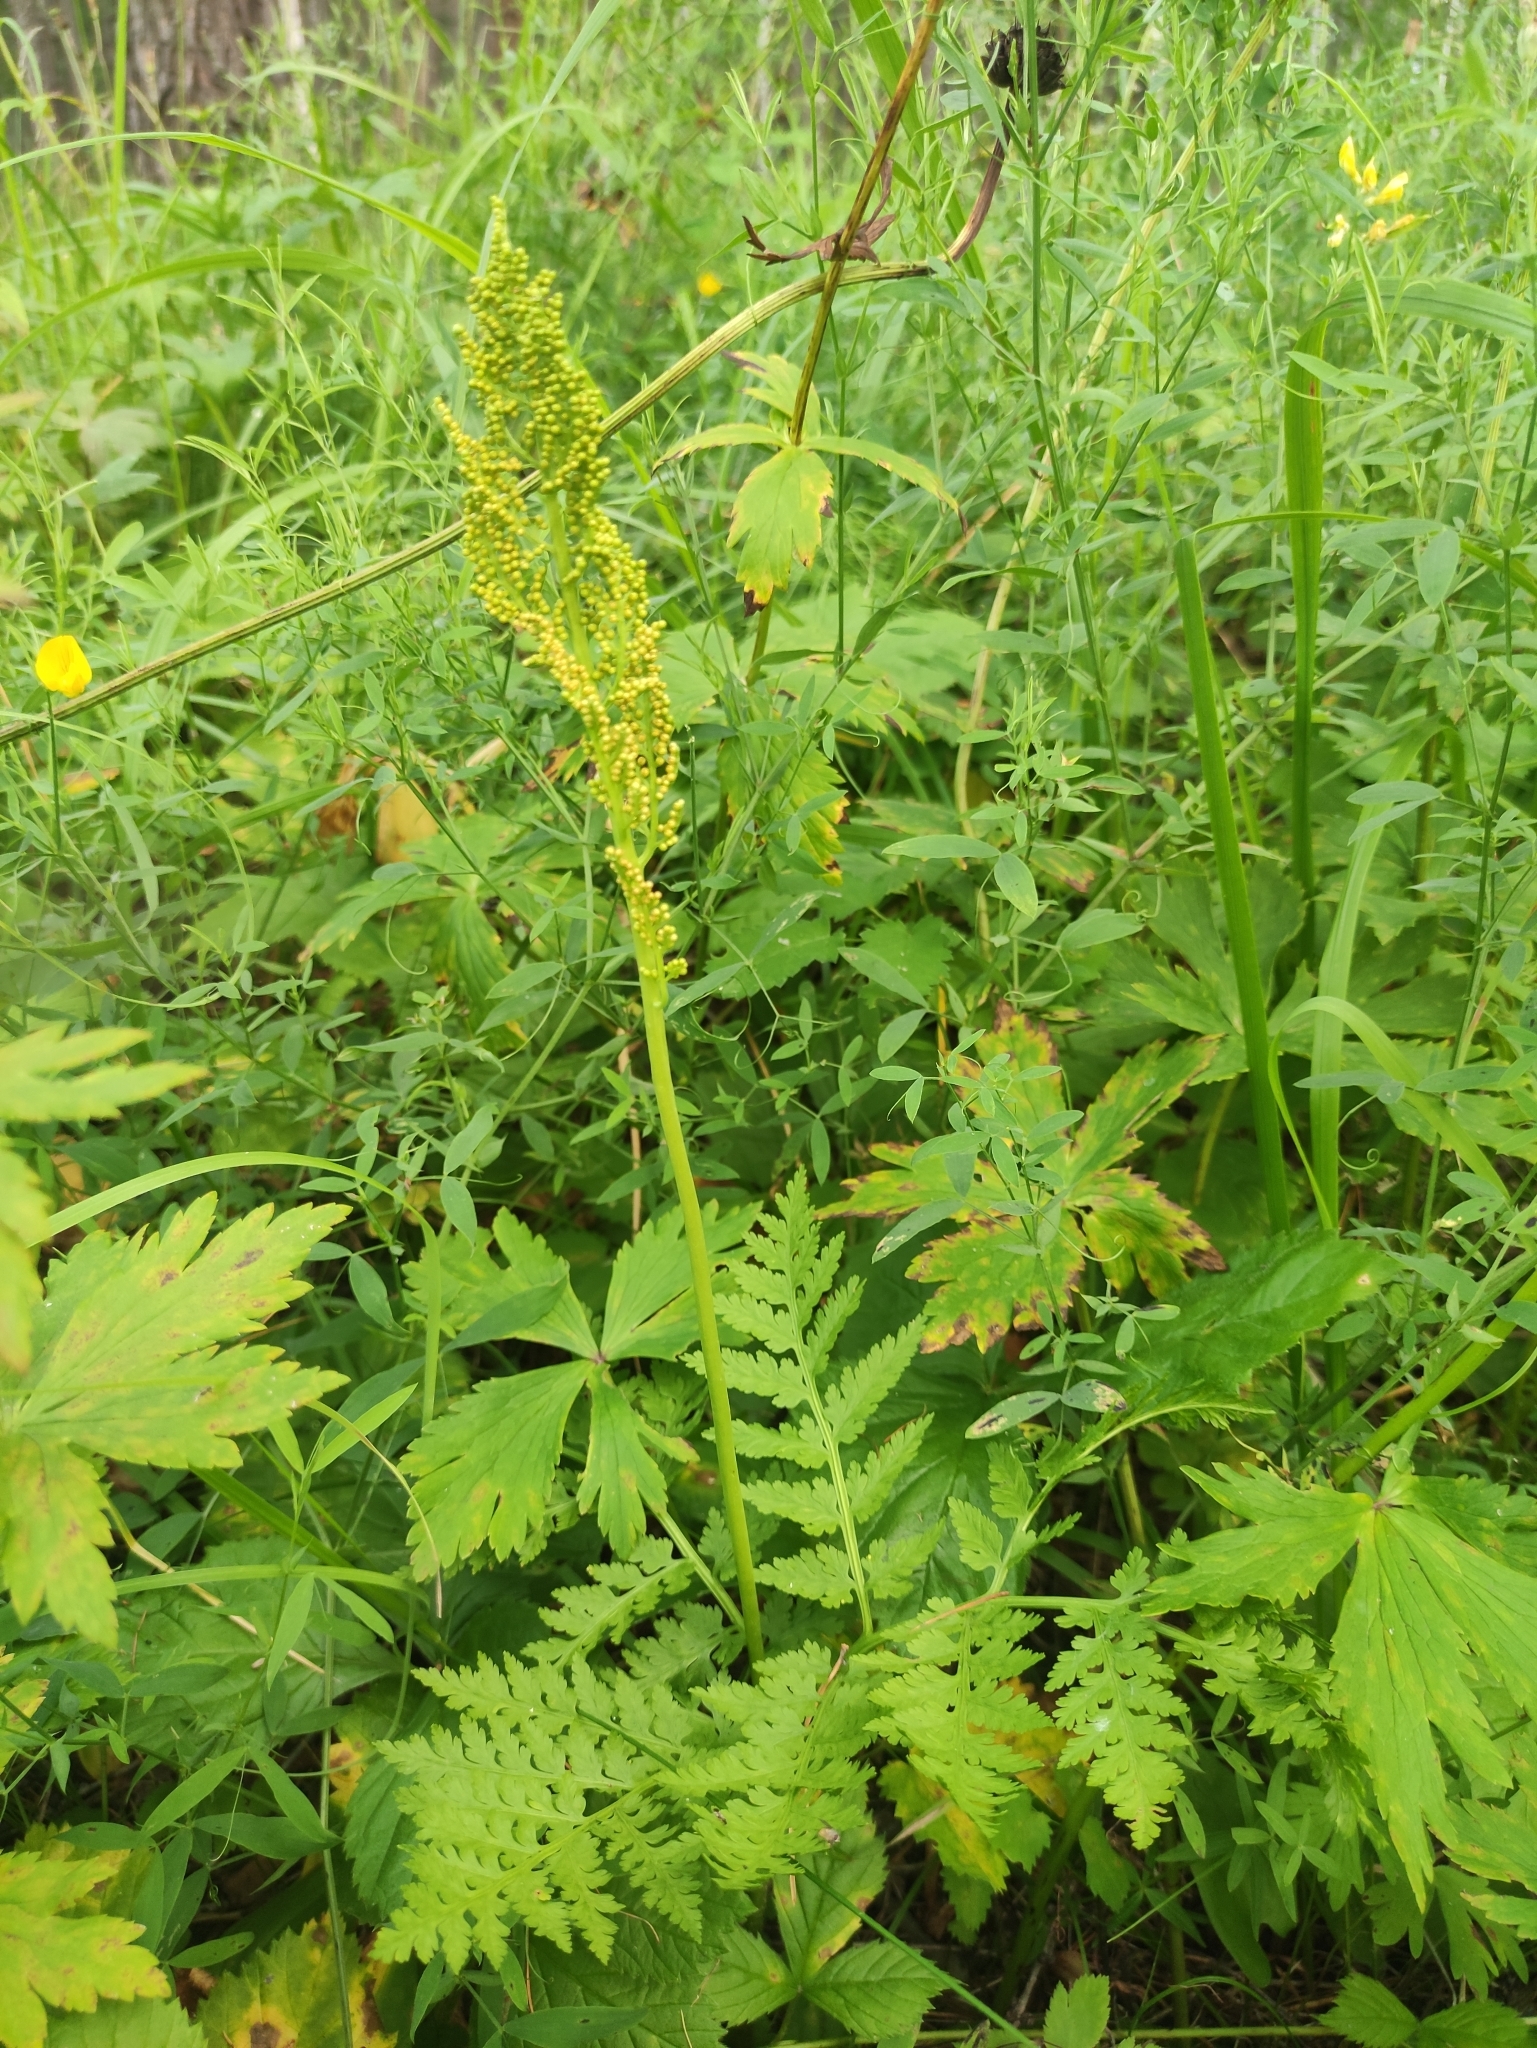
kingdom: Plantae
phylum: Tracheophyta
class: Polypodiopsida
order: Ophioglossales
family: Ophioglossaceae
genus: Botrypus
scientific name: Botrypus virginianus
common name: Common grapefern
